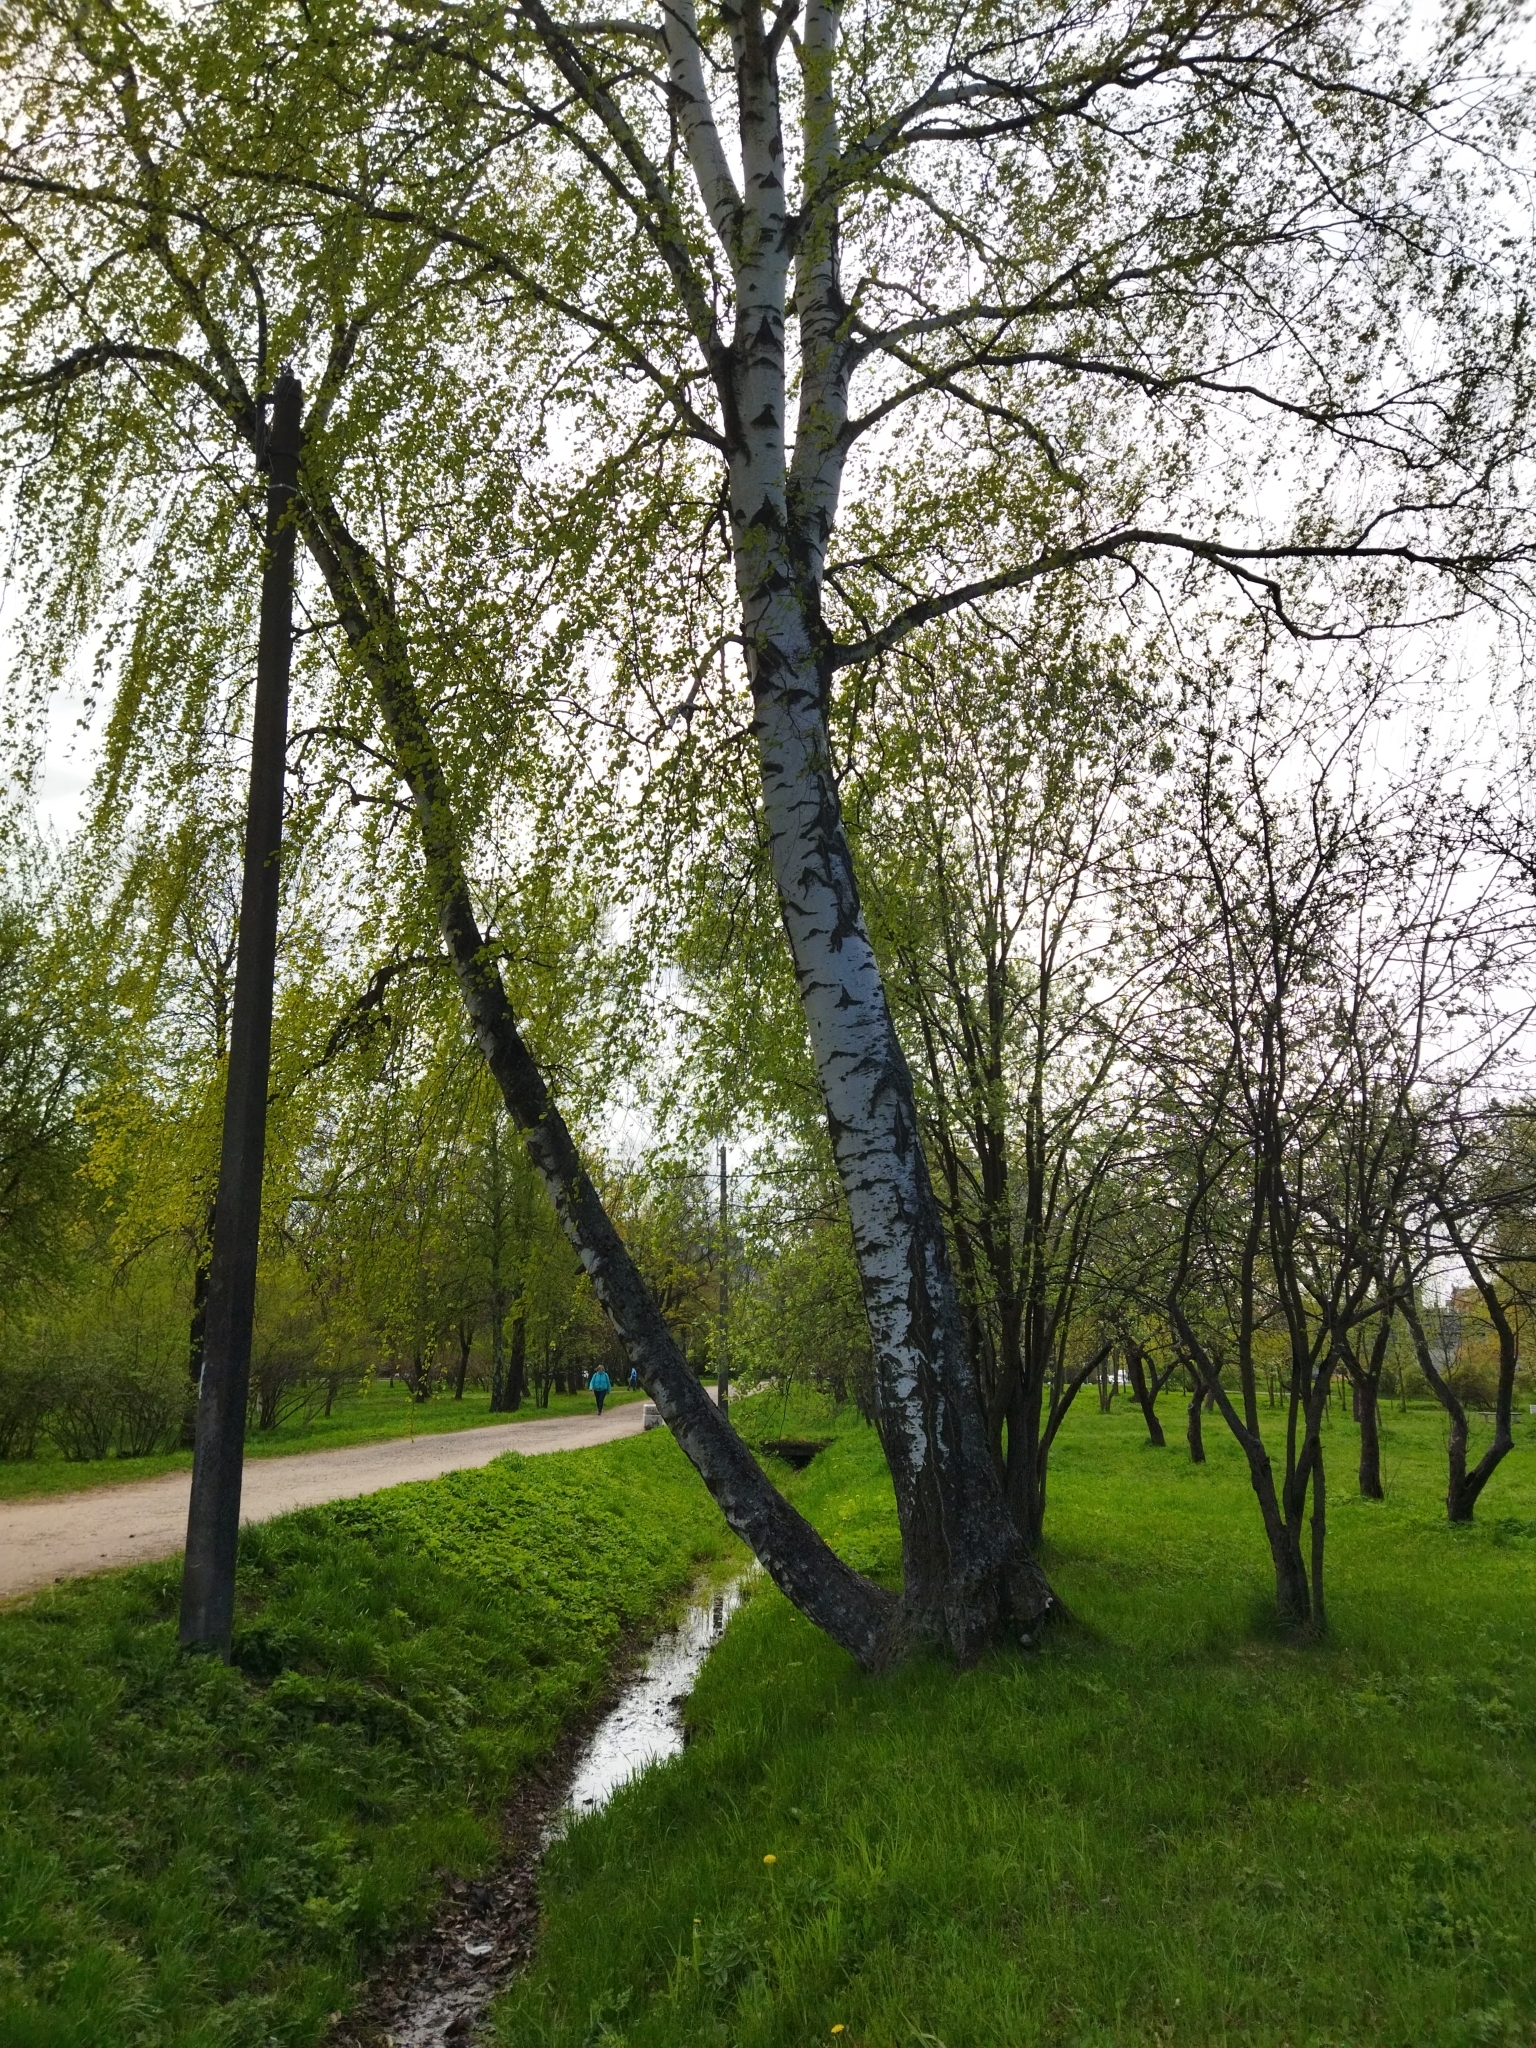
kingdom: Plantae
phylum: Tracheophyta
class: Magnoliopsida
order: Fagales
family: Betulaceae
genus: Betula
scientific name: Betula pendula
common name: Silver birch
